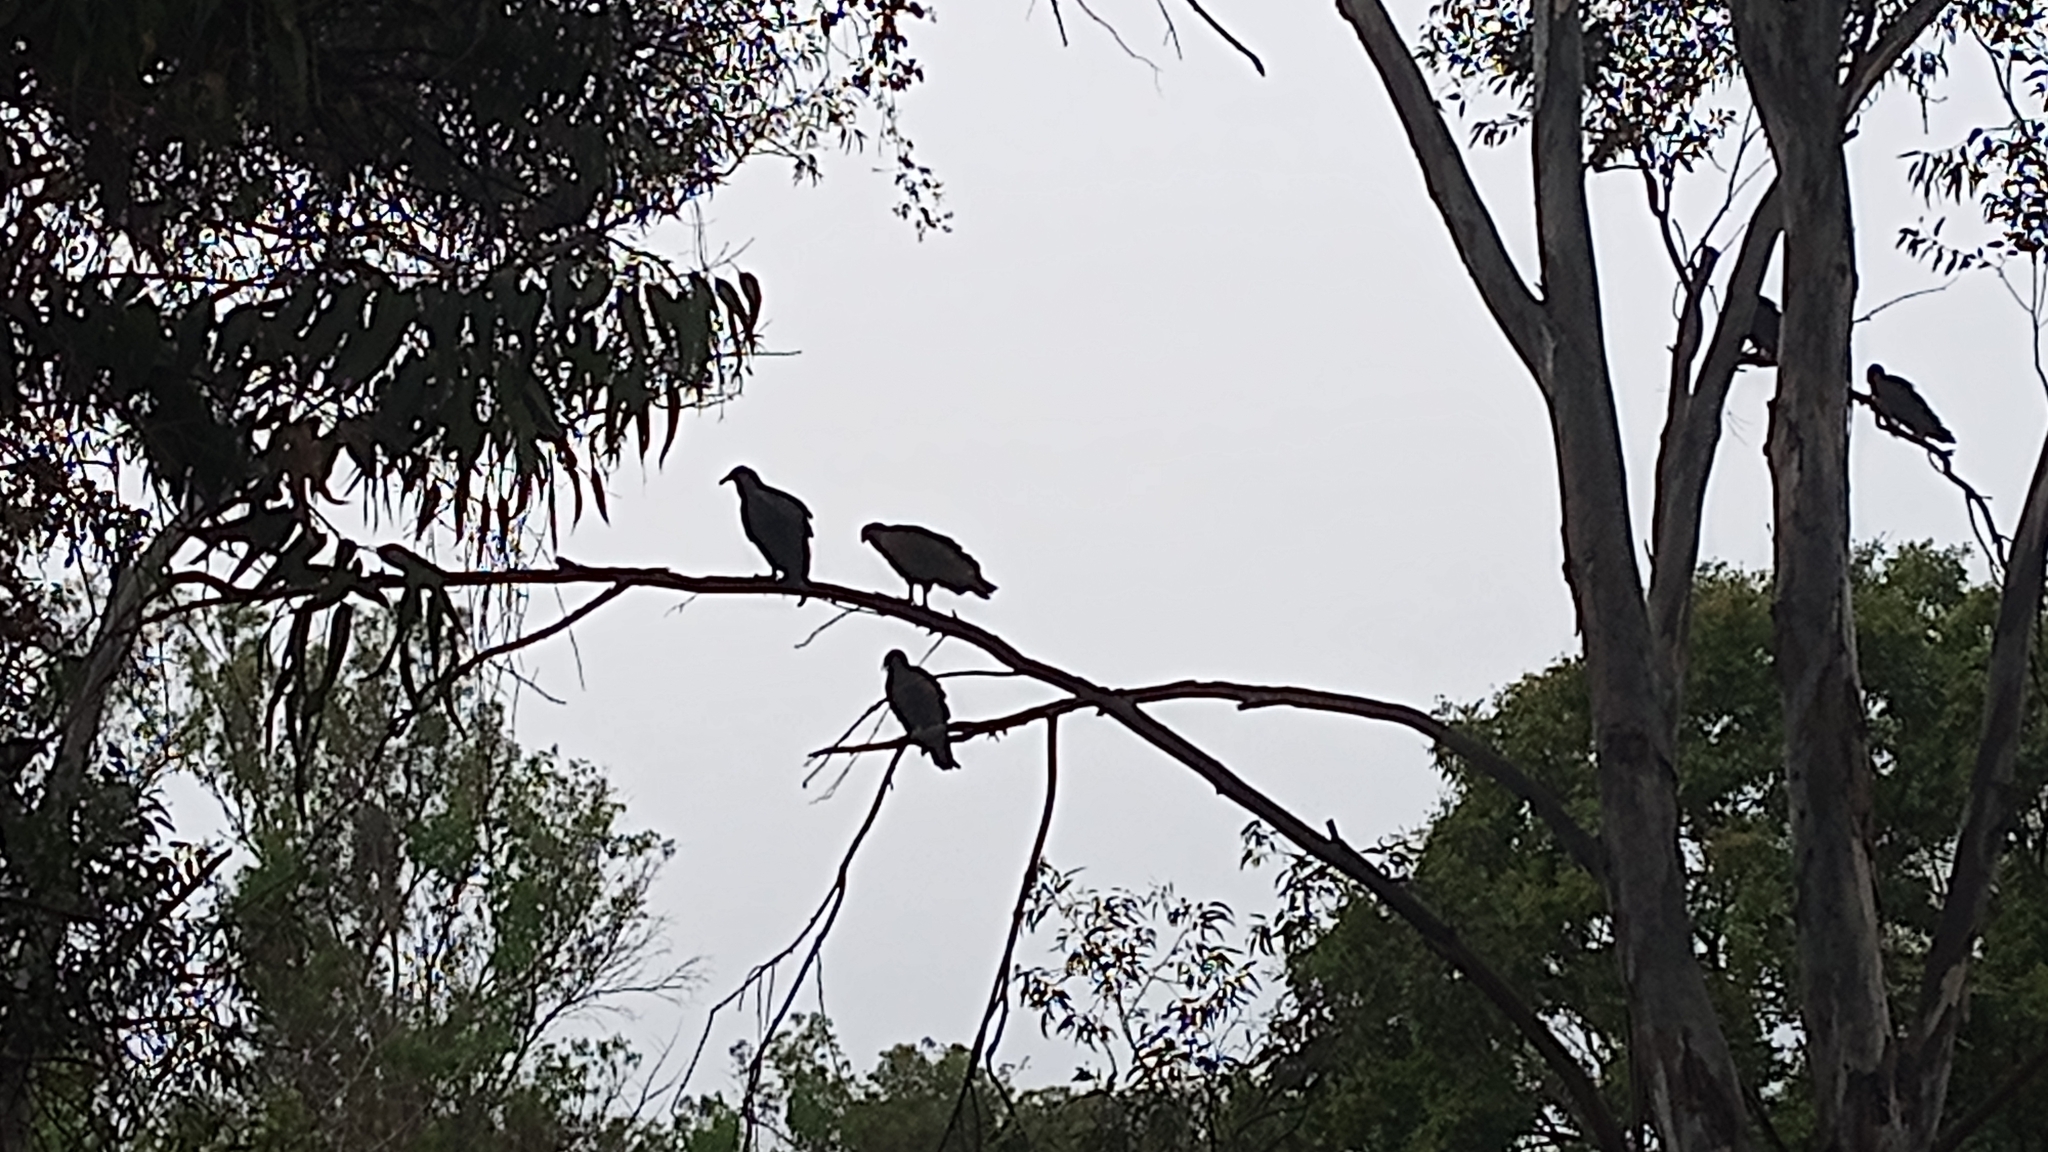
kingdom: Animalia
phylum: Chordata
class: Aves
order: Accipitriformes
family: Cathartidae
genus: Coragyps
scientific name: Coragyps atratus
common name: Black vulture
